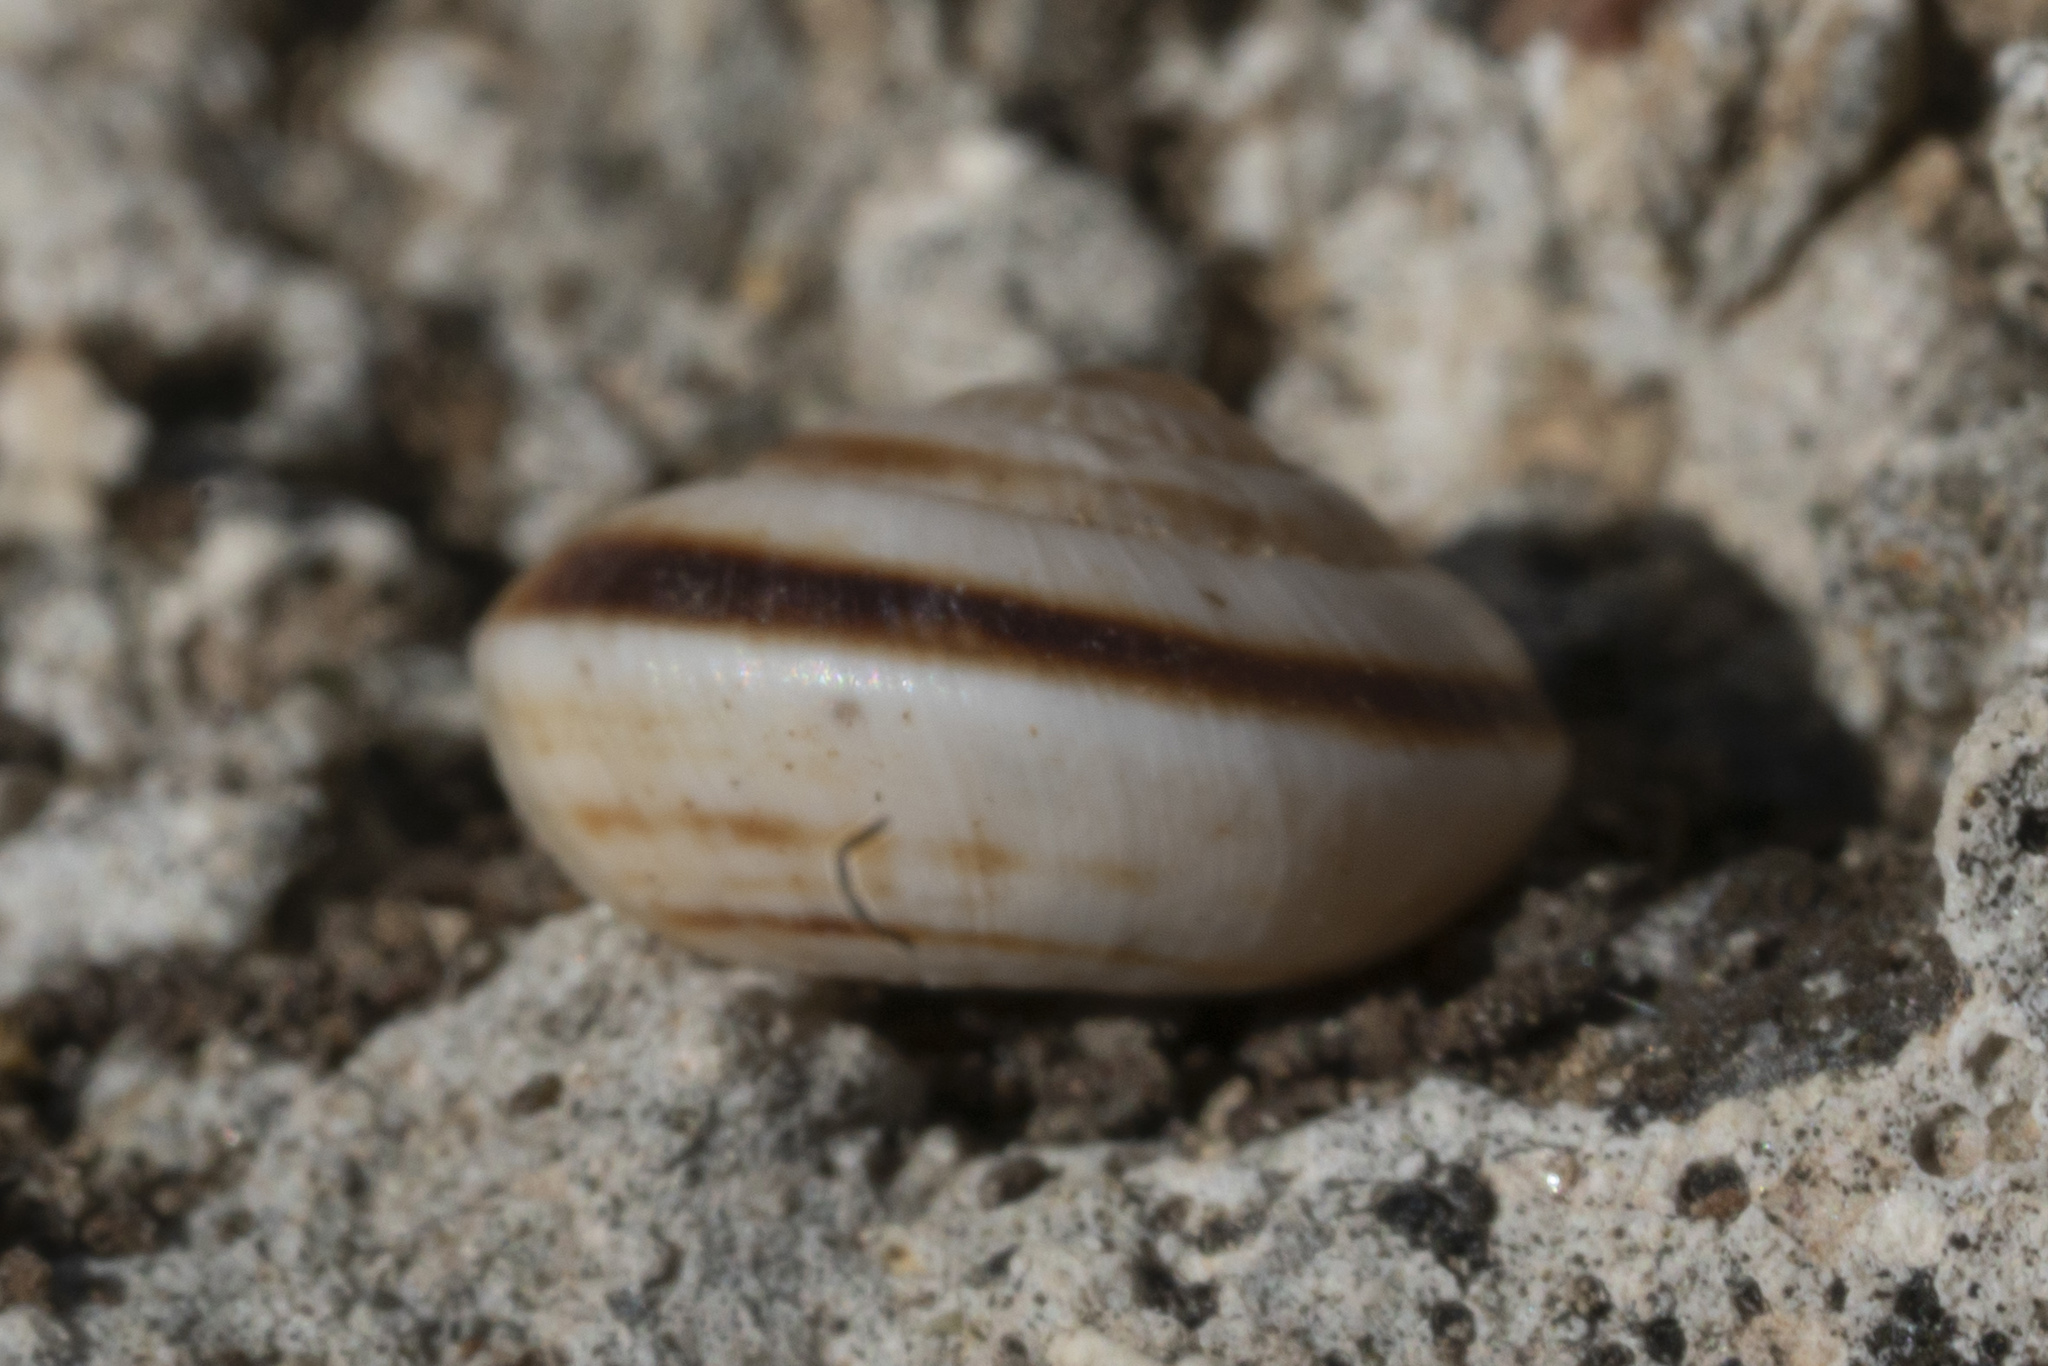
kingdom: Animalia
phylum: Mollusca
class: Gastropoda
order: Stylommatophora
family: Geomitridae
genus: Cernuella
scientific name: Cernuella virgata
